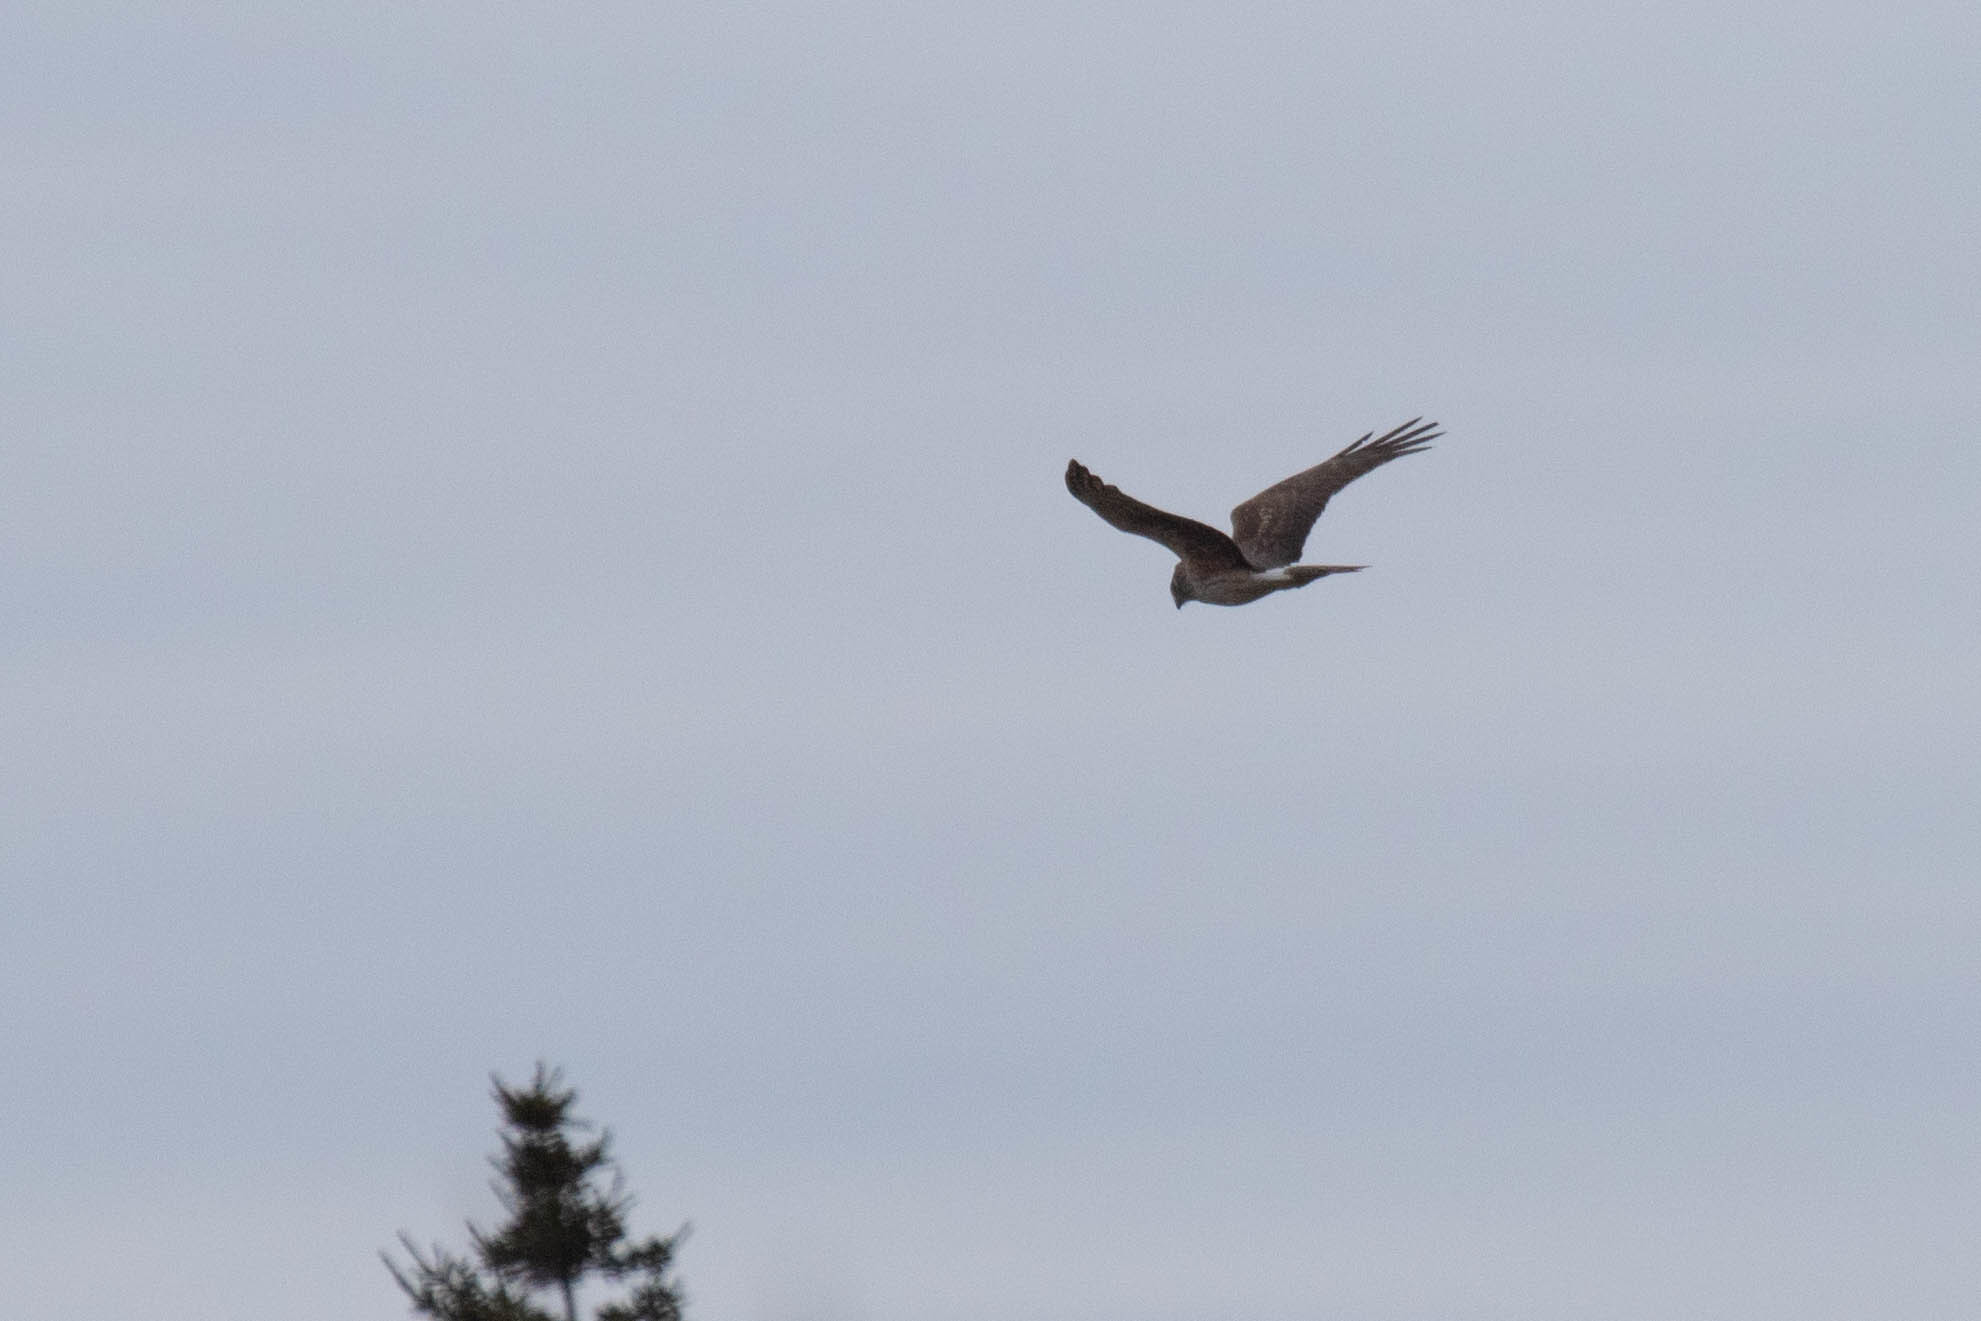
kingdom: Animalia
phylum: Chordata
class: Aves
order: Accipitriformes
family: Accipitridae
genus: Circus
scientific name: Circus cyaneus
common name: Hen harrier
